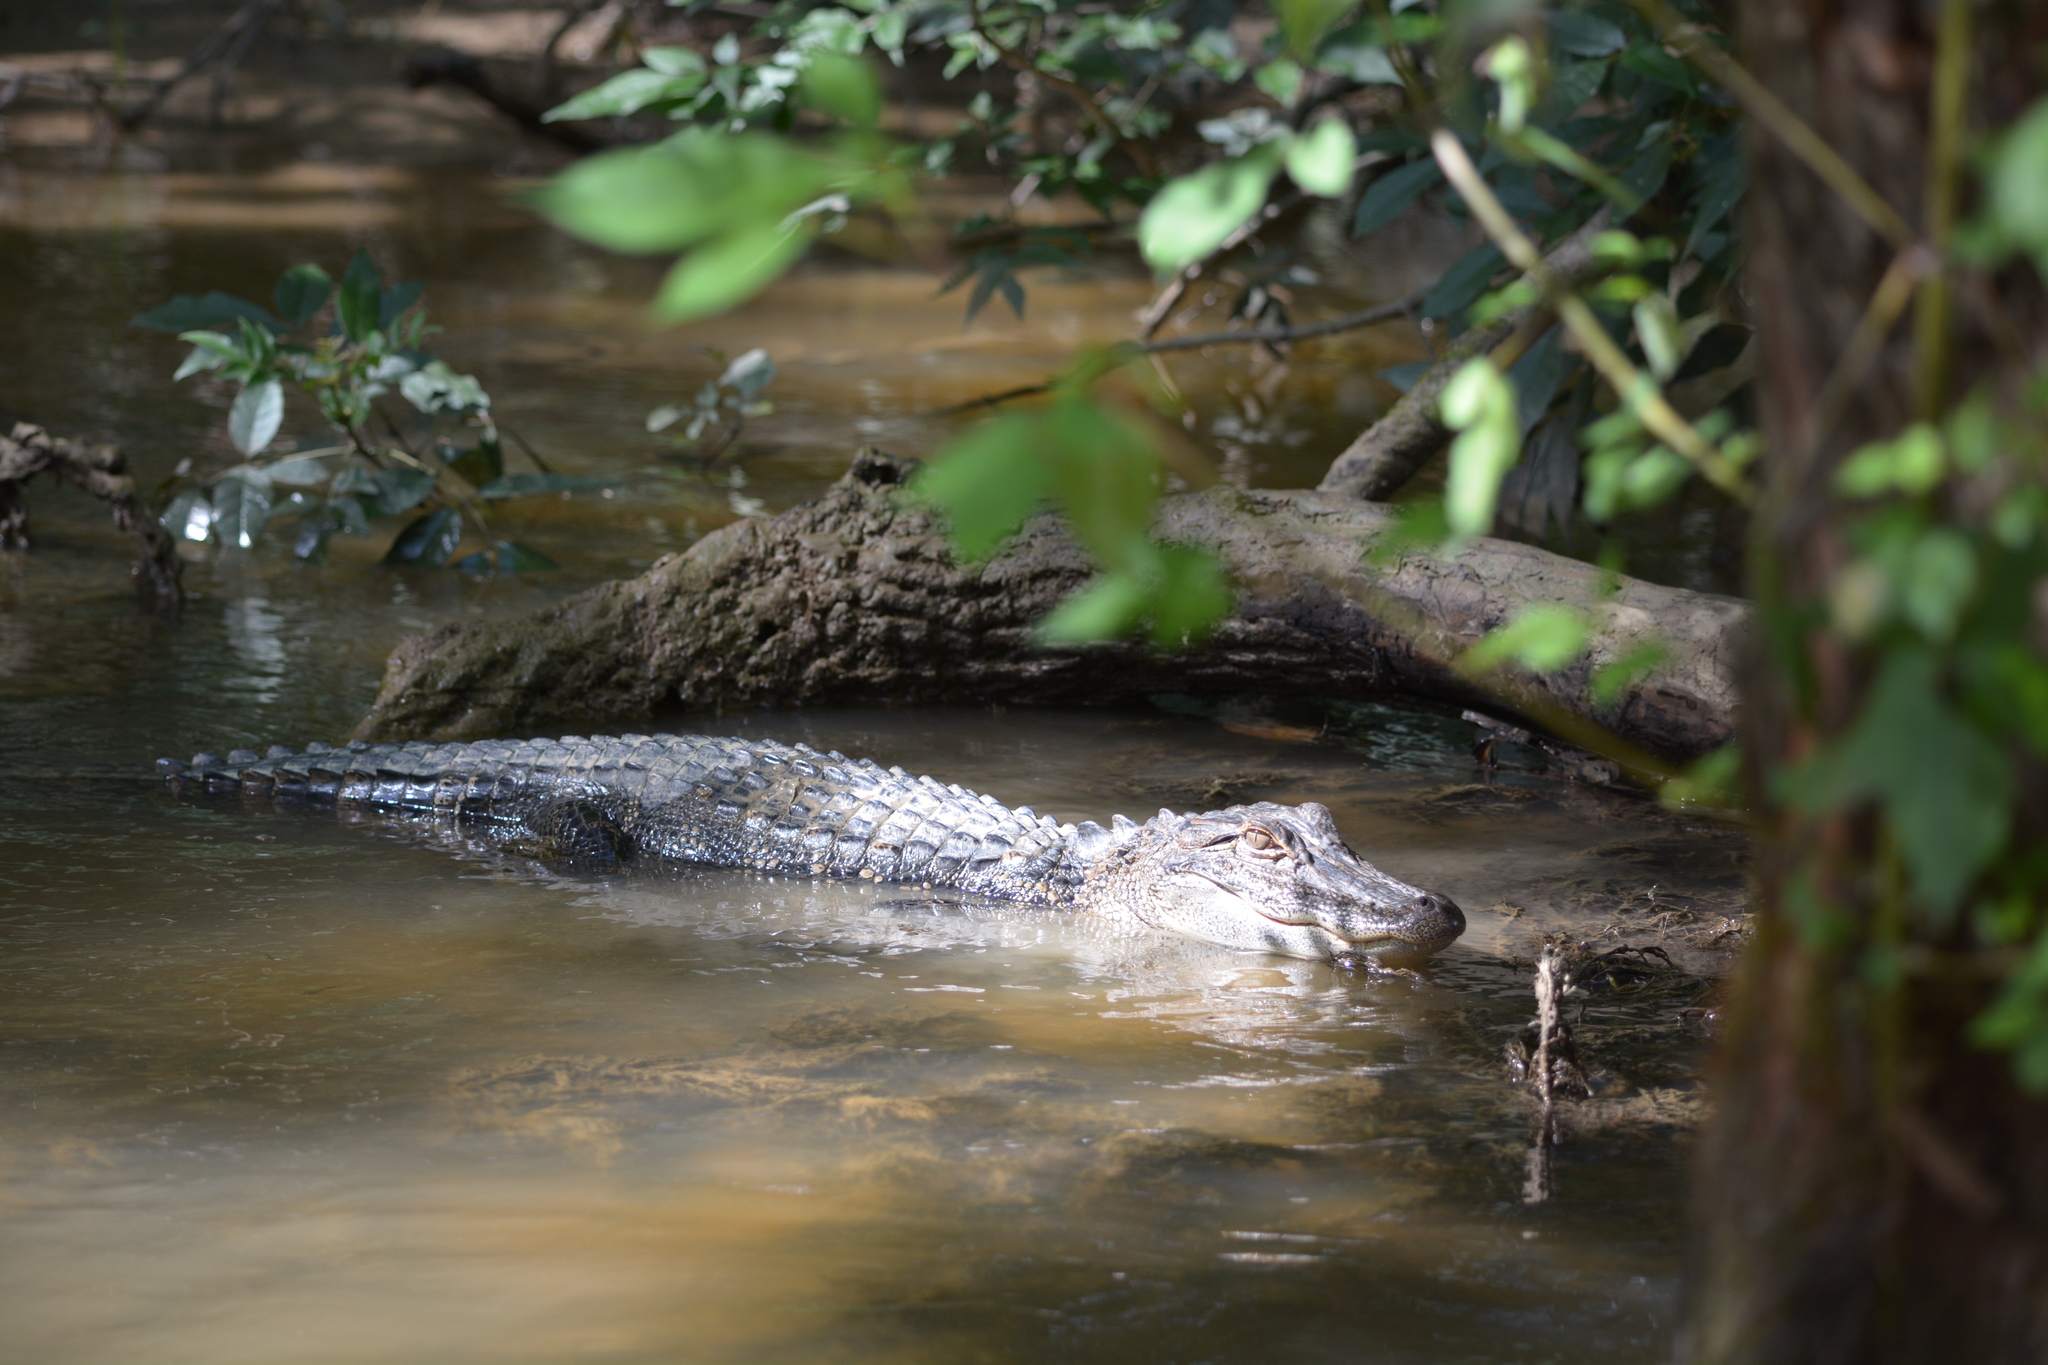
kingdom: Animalia
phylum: Chordata
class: Crocodylia
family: Alligatoridae
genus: Alligator
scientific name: Alligator mississippiensis
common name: American alligator
